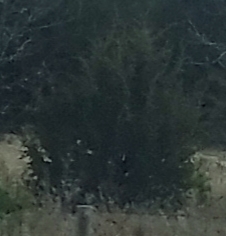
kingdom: Plantae
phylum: Tracheophyta
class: Pinopsida
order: Pinales
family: Cupressaceae
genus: Juniperus
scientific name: Juniperus virginiana
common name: Red juniper
